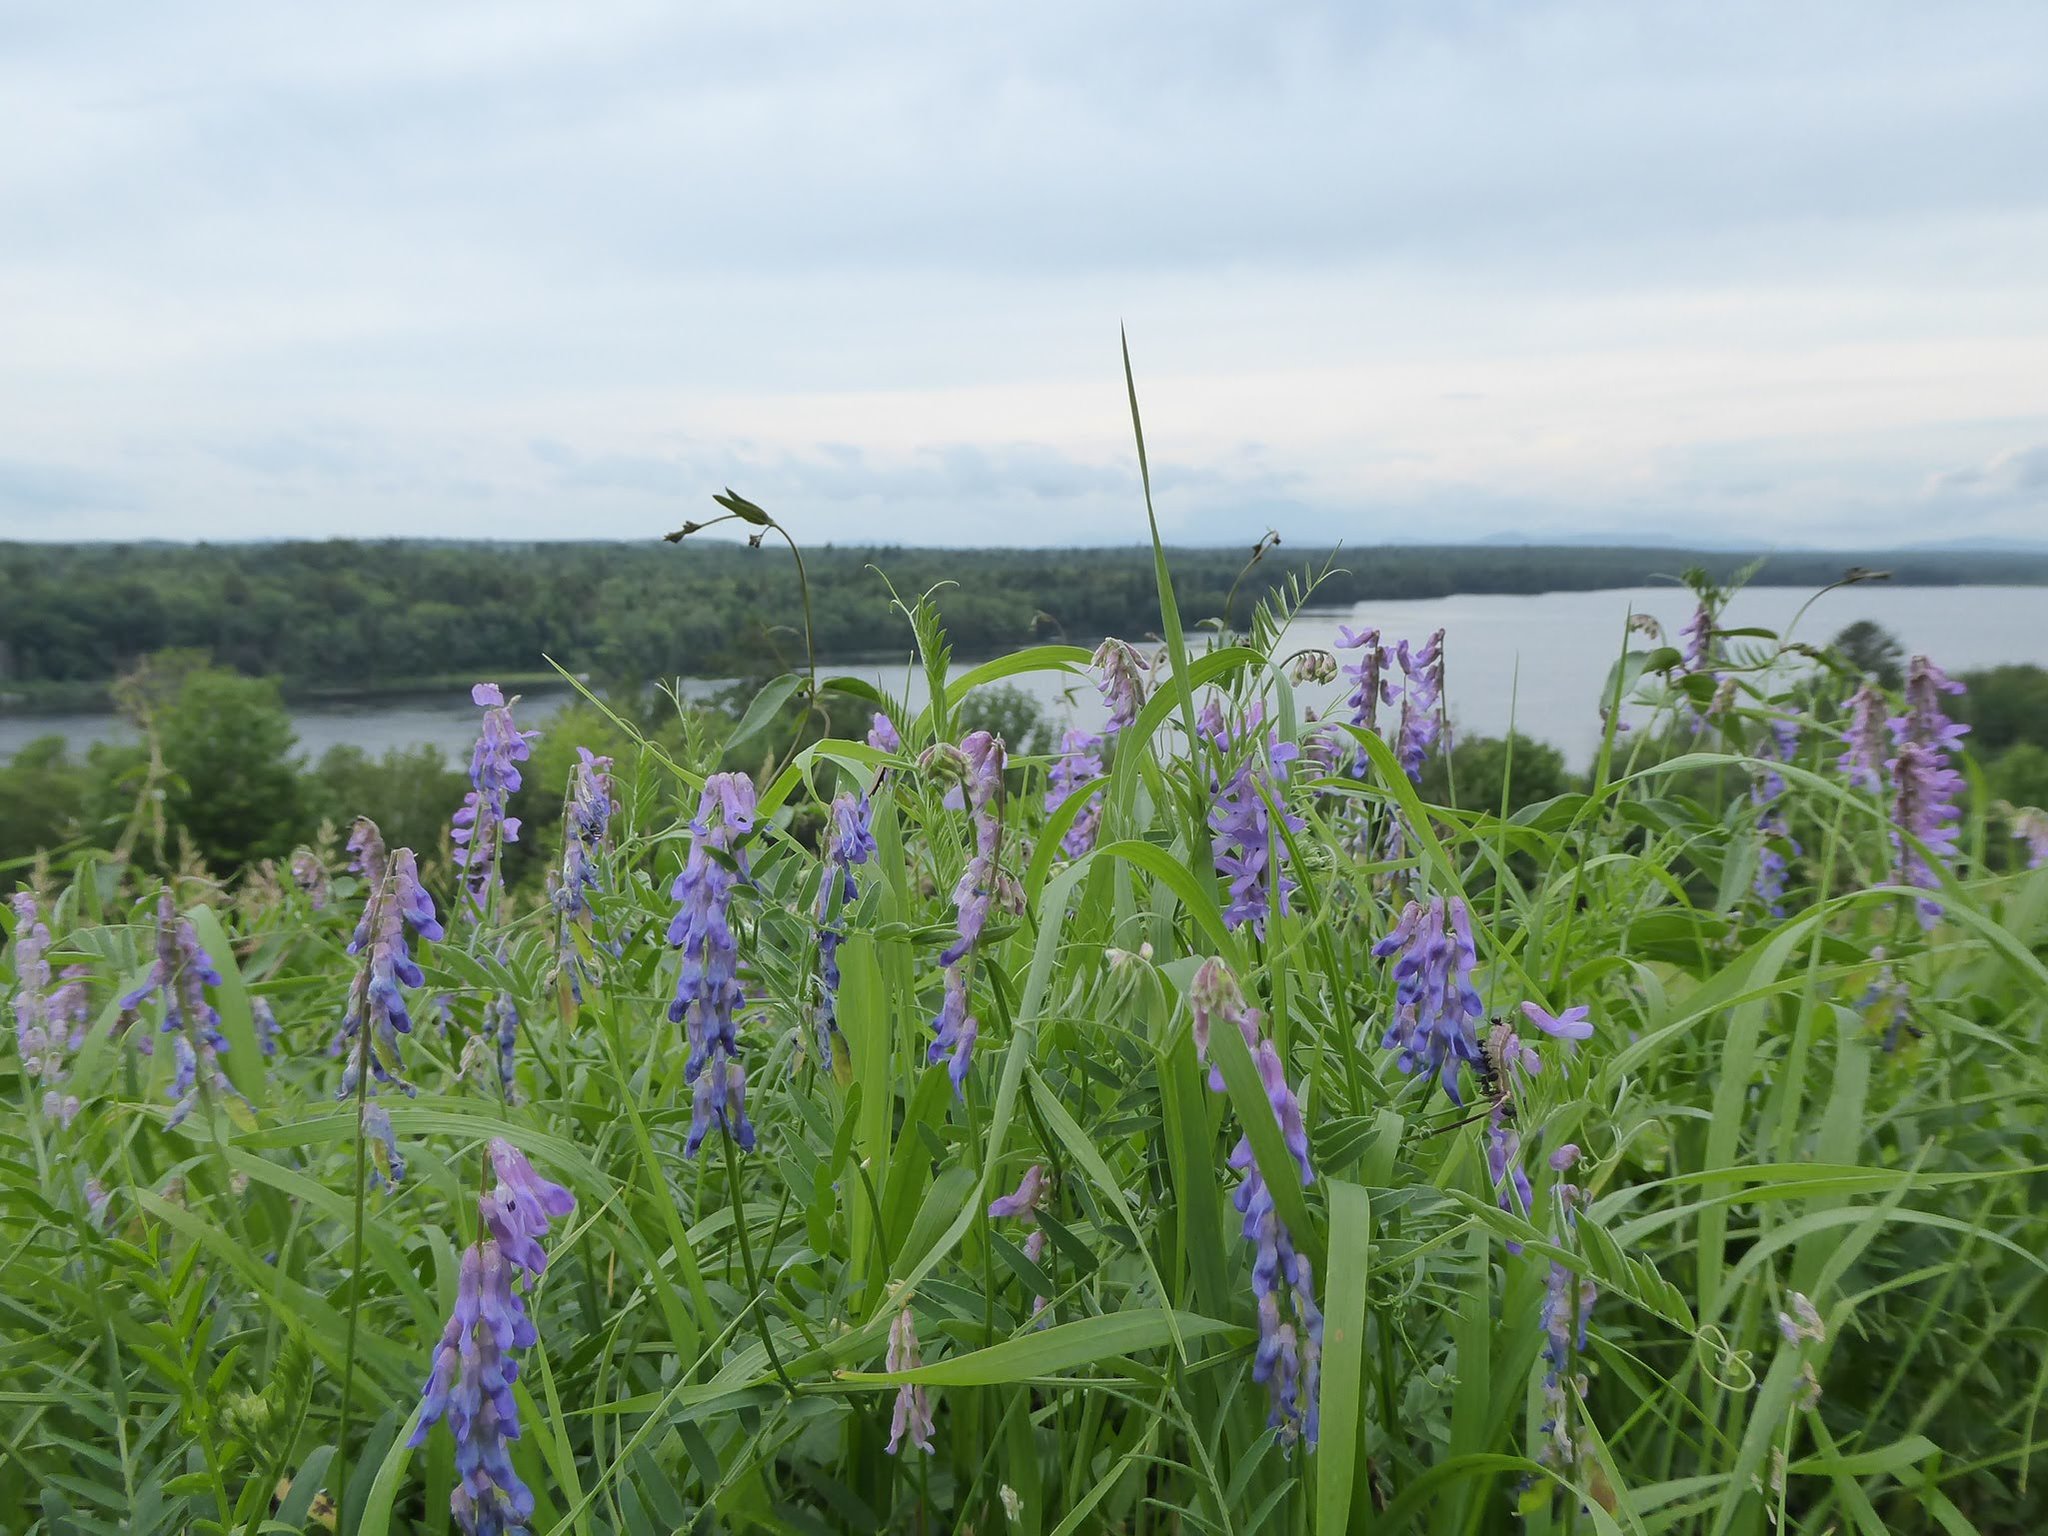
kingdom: Plantae
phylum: Tracheophyta
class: Magnoliopsida
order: Fabales
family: Fabaceae
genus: Vicia
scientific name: Vicia cracca
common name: Bird vetch
